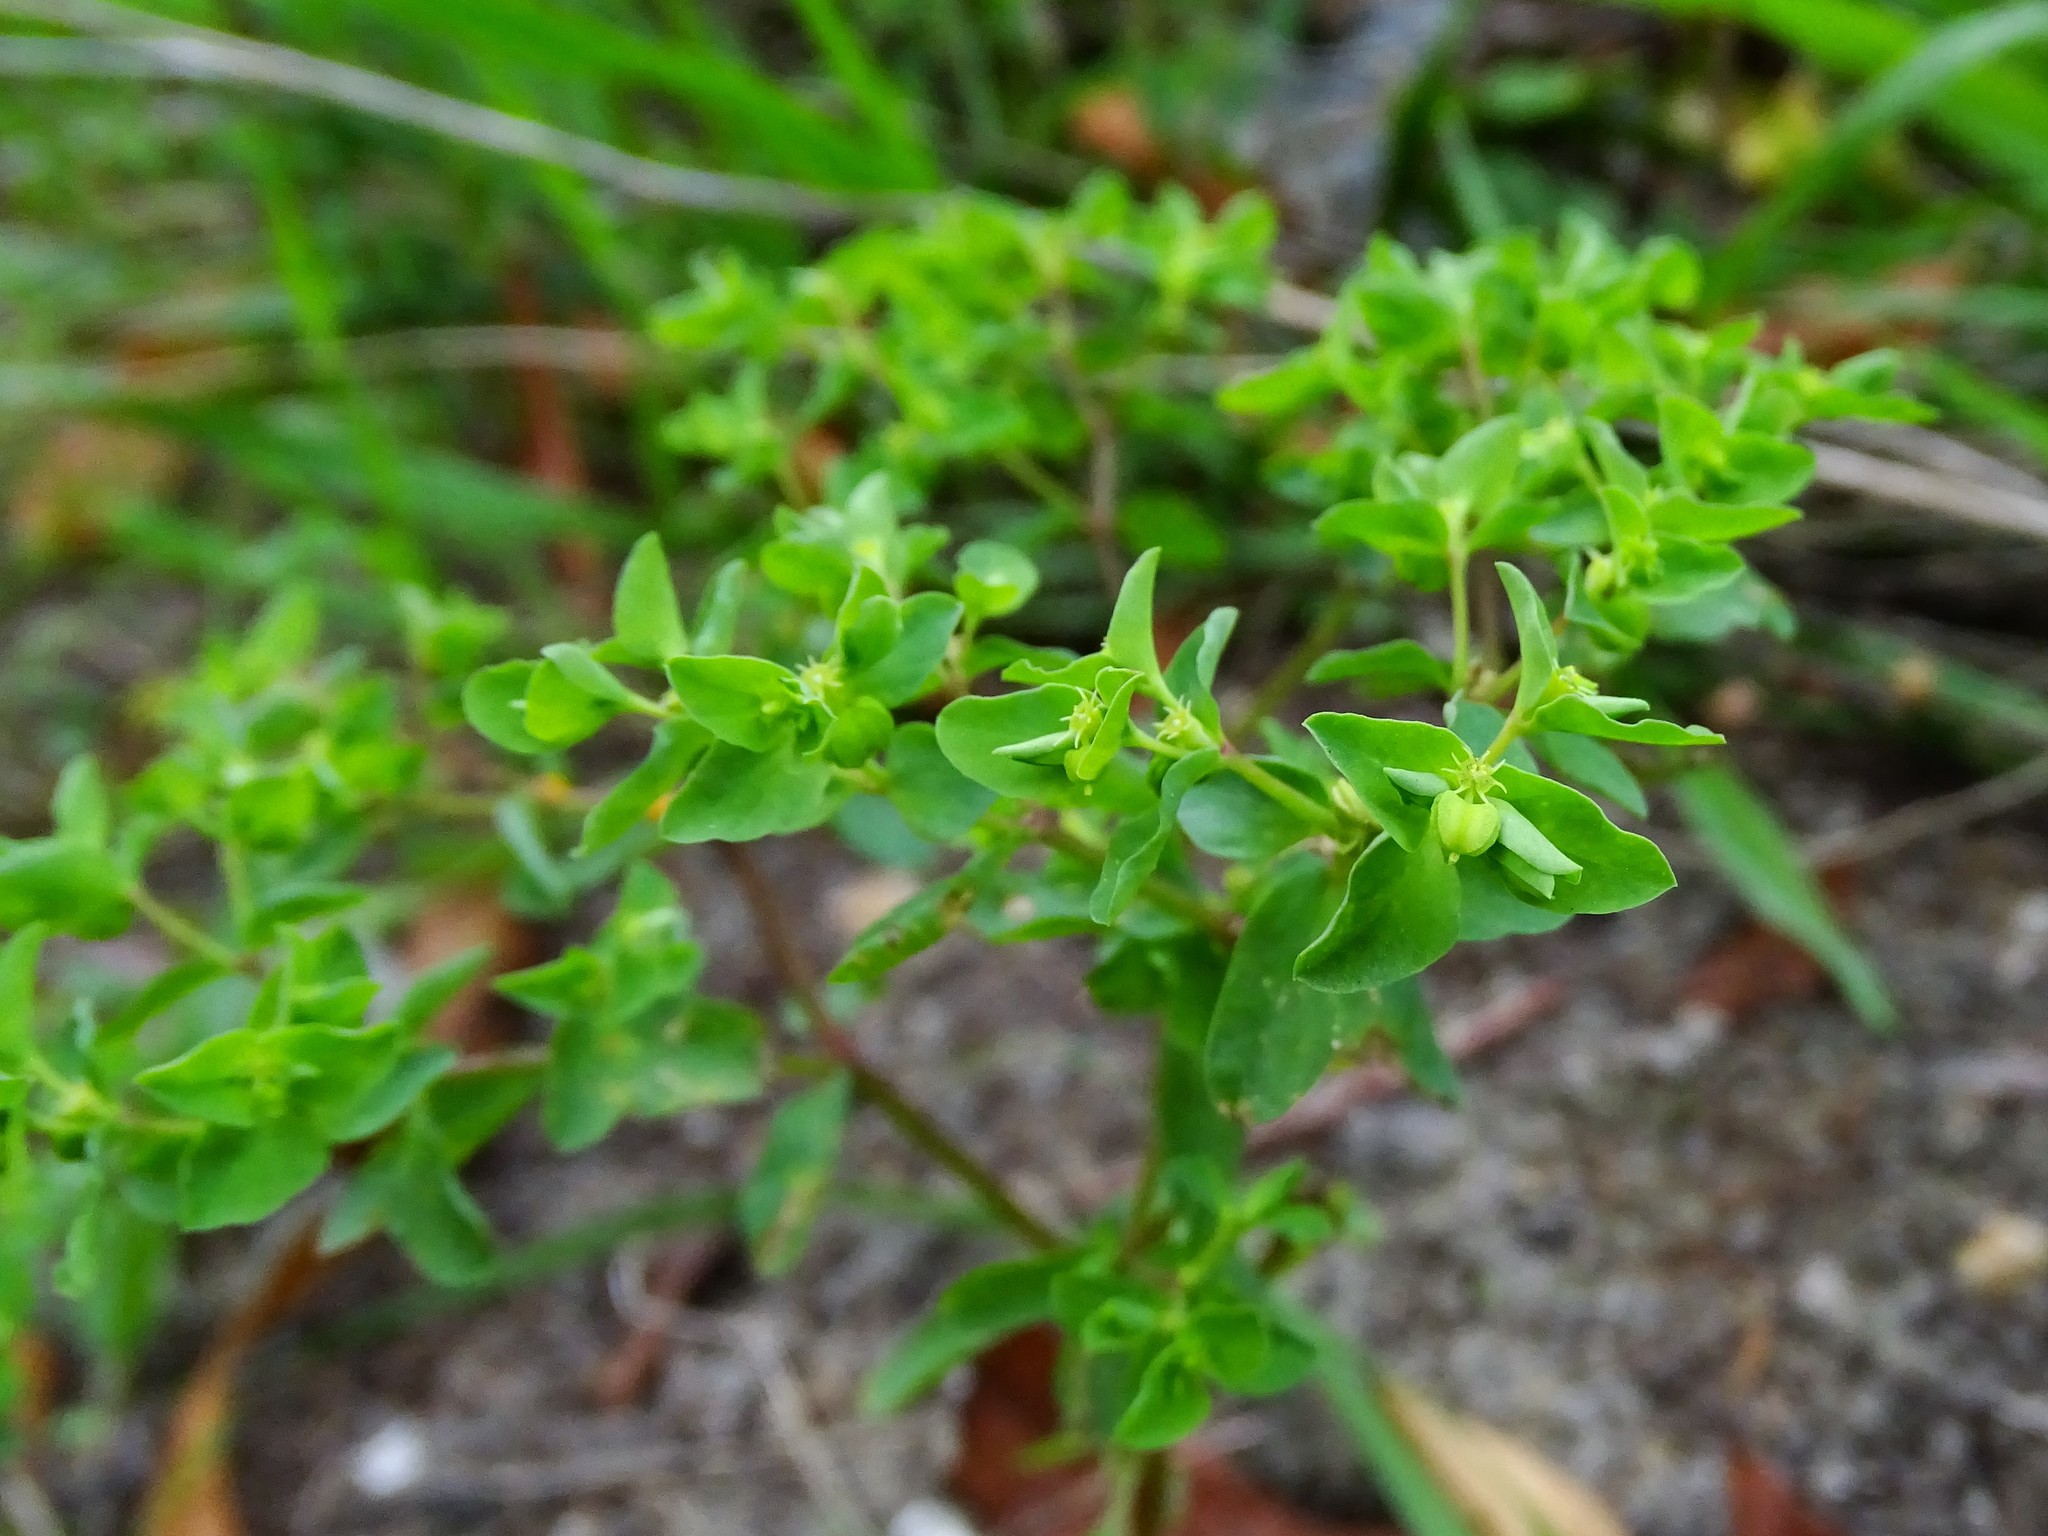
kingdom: Plantae
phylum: Tracheophyta
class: Magnoliopsida
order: Malpighiales
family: Euphorbiaceae
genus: Euphorbia
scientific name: Euphorbia peplus
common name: Petty spurge
